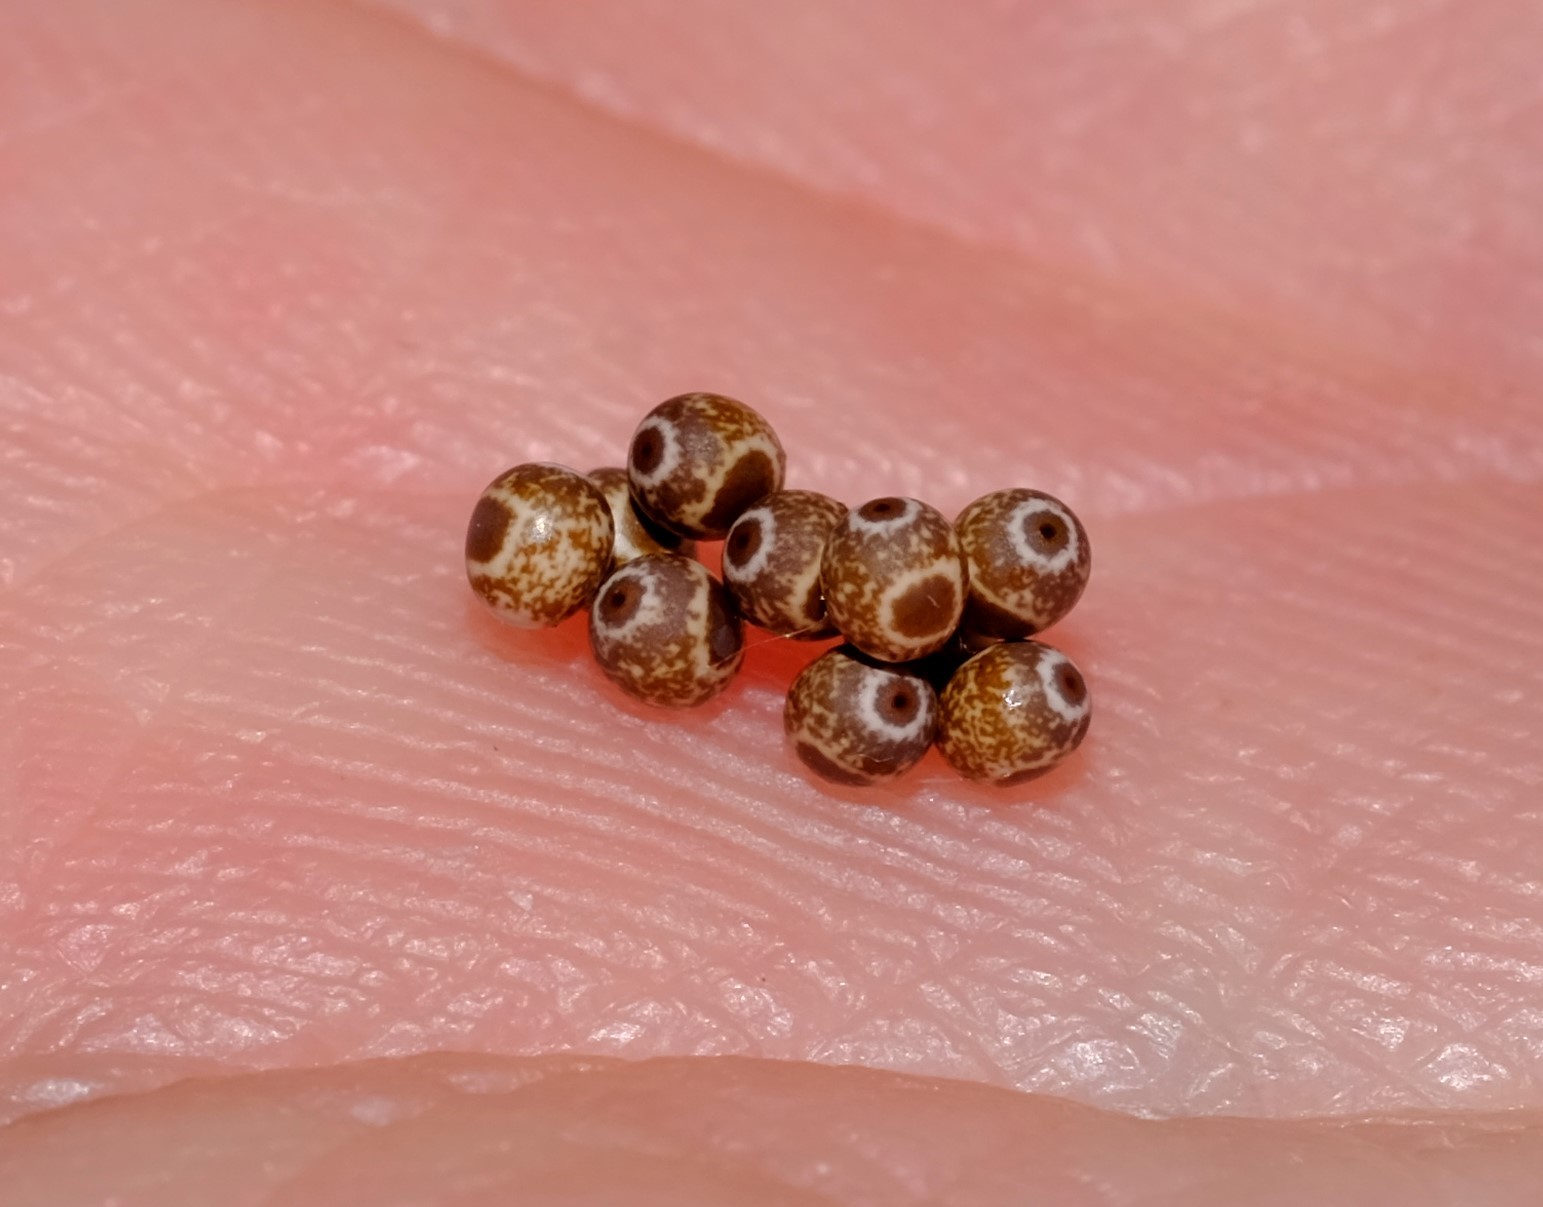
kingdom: Animalia
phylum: Arthropoda
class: Insecta
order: Lepidoptera
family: Lasiocampidae
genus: Pinara
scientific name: Pinara metaphaea
